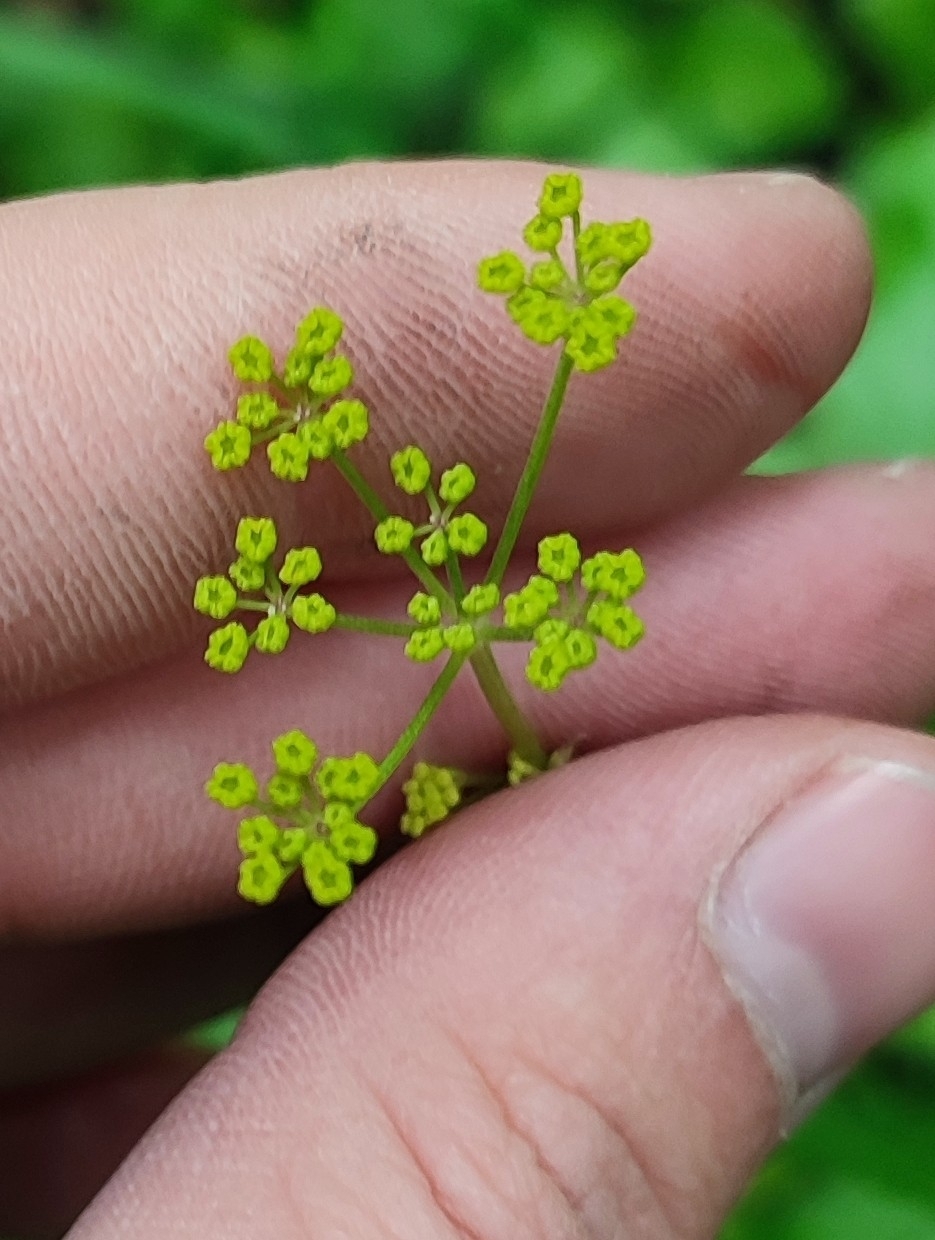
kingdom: Plantae
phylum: Tracheophyta
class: Magnoliopsida
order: Apiales
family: Apiaceae
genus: Pastinaca
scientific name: Pastinaca sativa
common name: Wild parsnip
